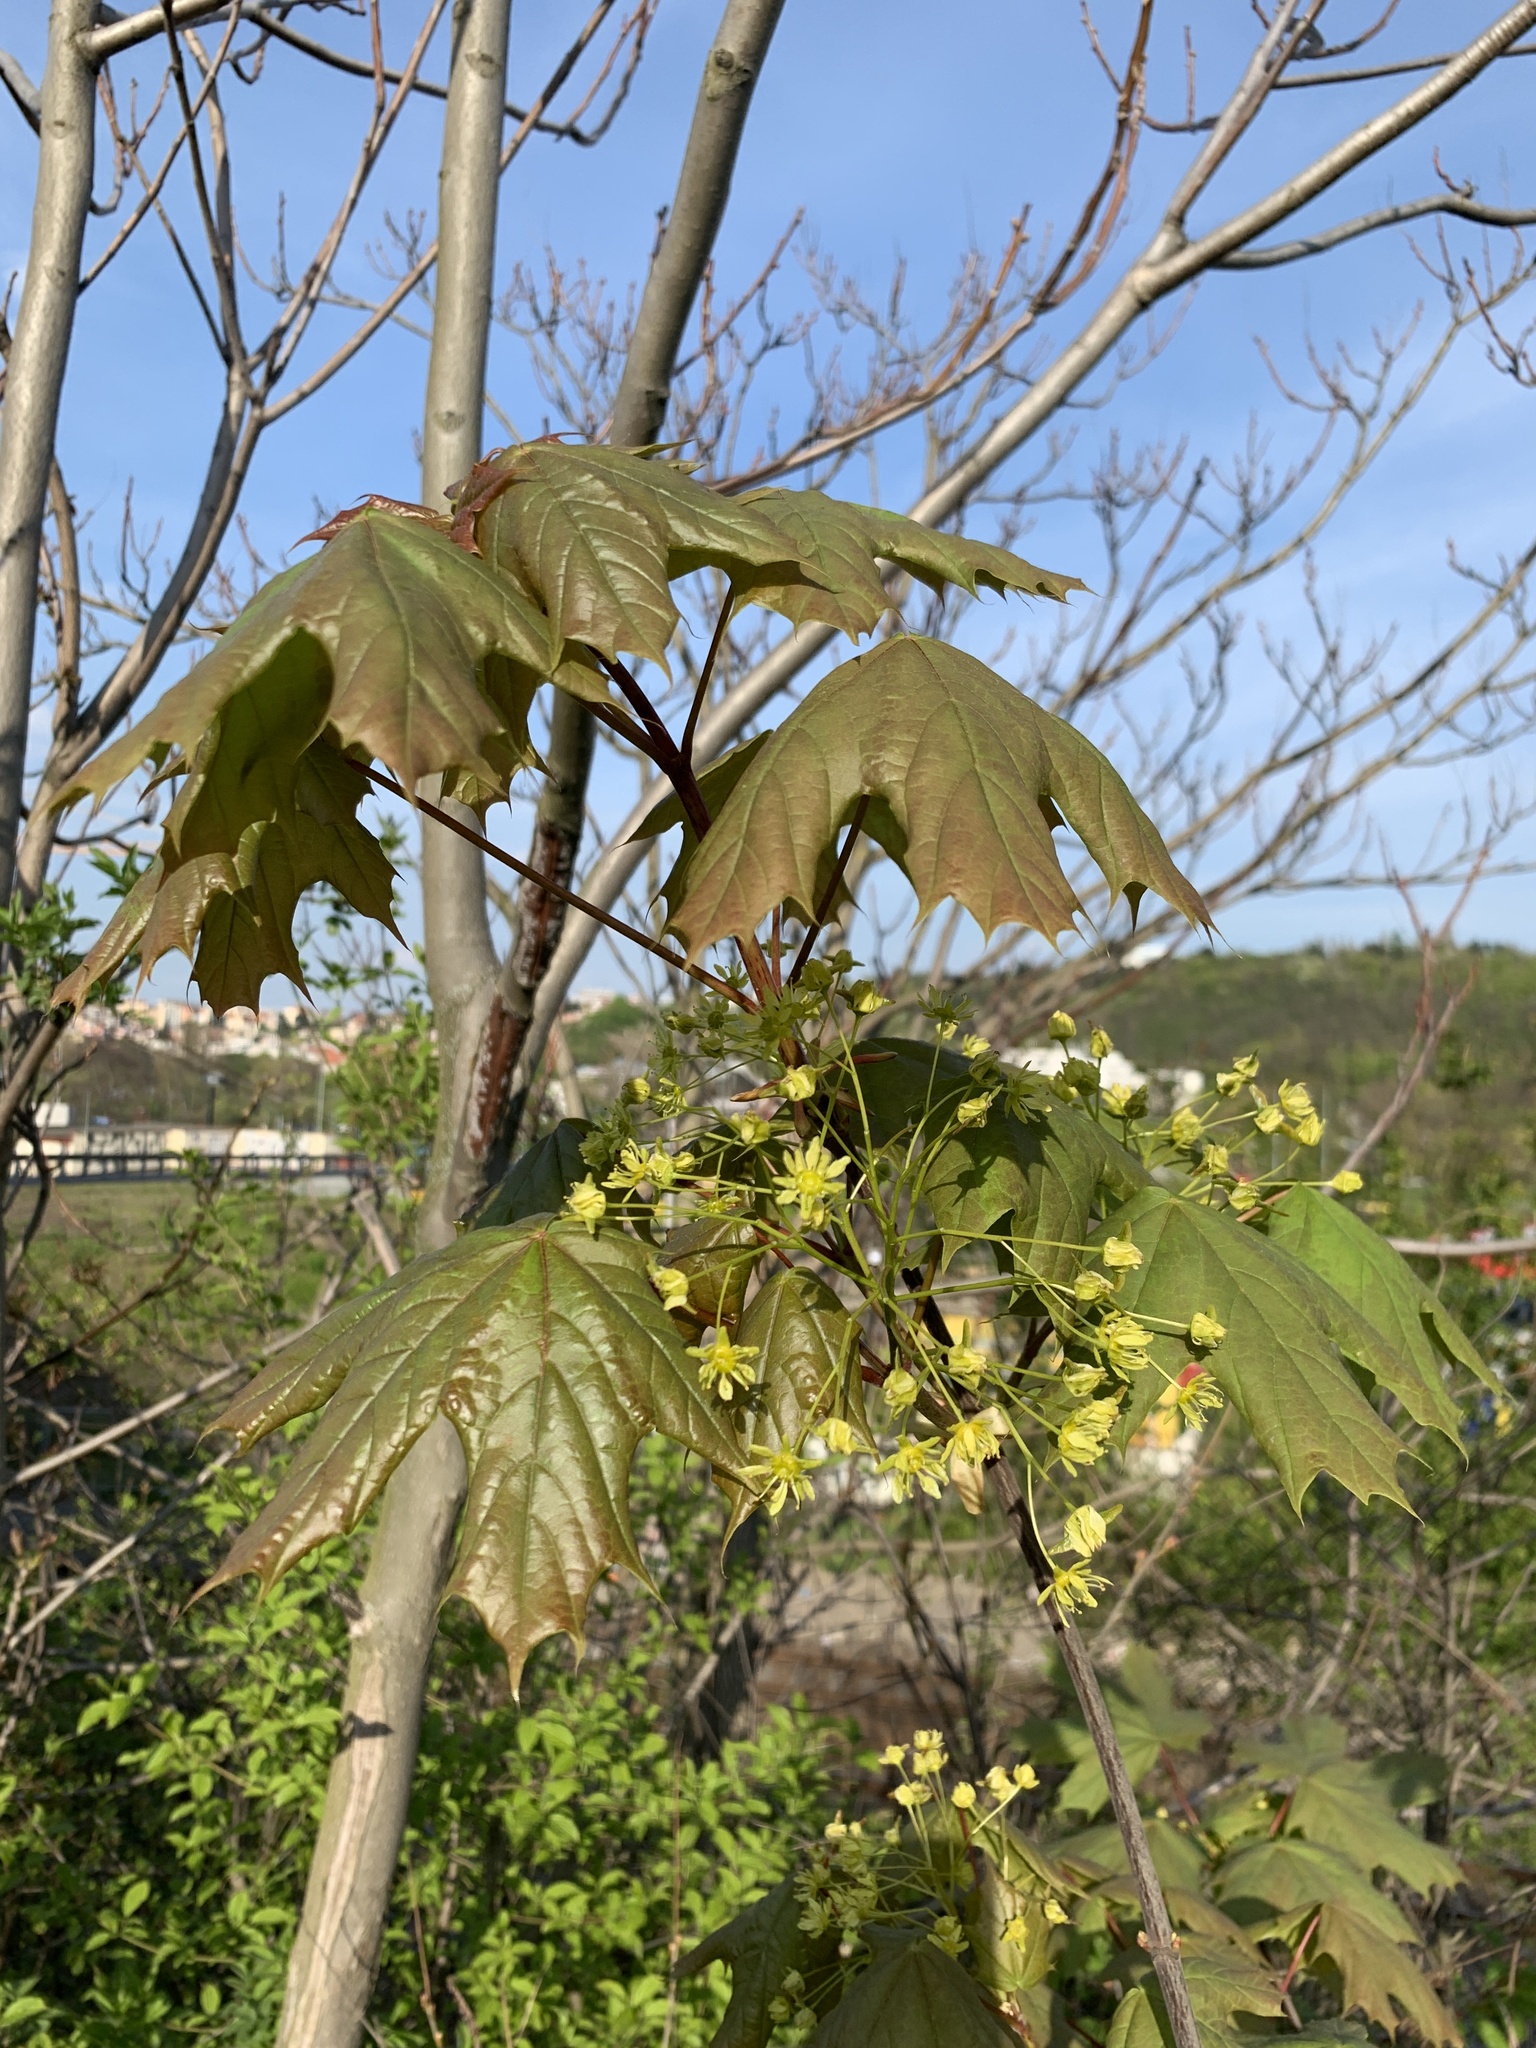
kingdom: Plantae
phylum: Tracheophyta
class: Magnoliopsida
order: Sapindales
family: Sapindaceae
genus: Acer
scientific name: Acer platanoides
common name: Norway maple
